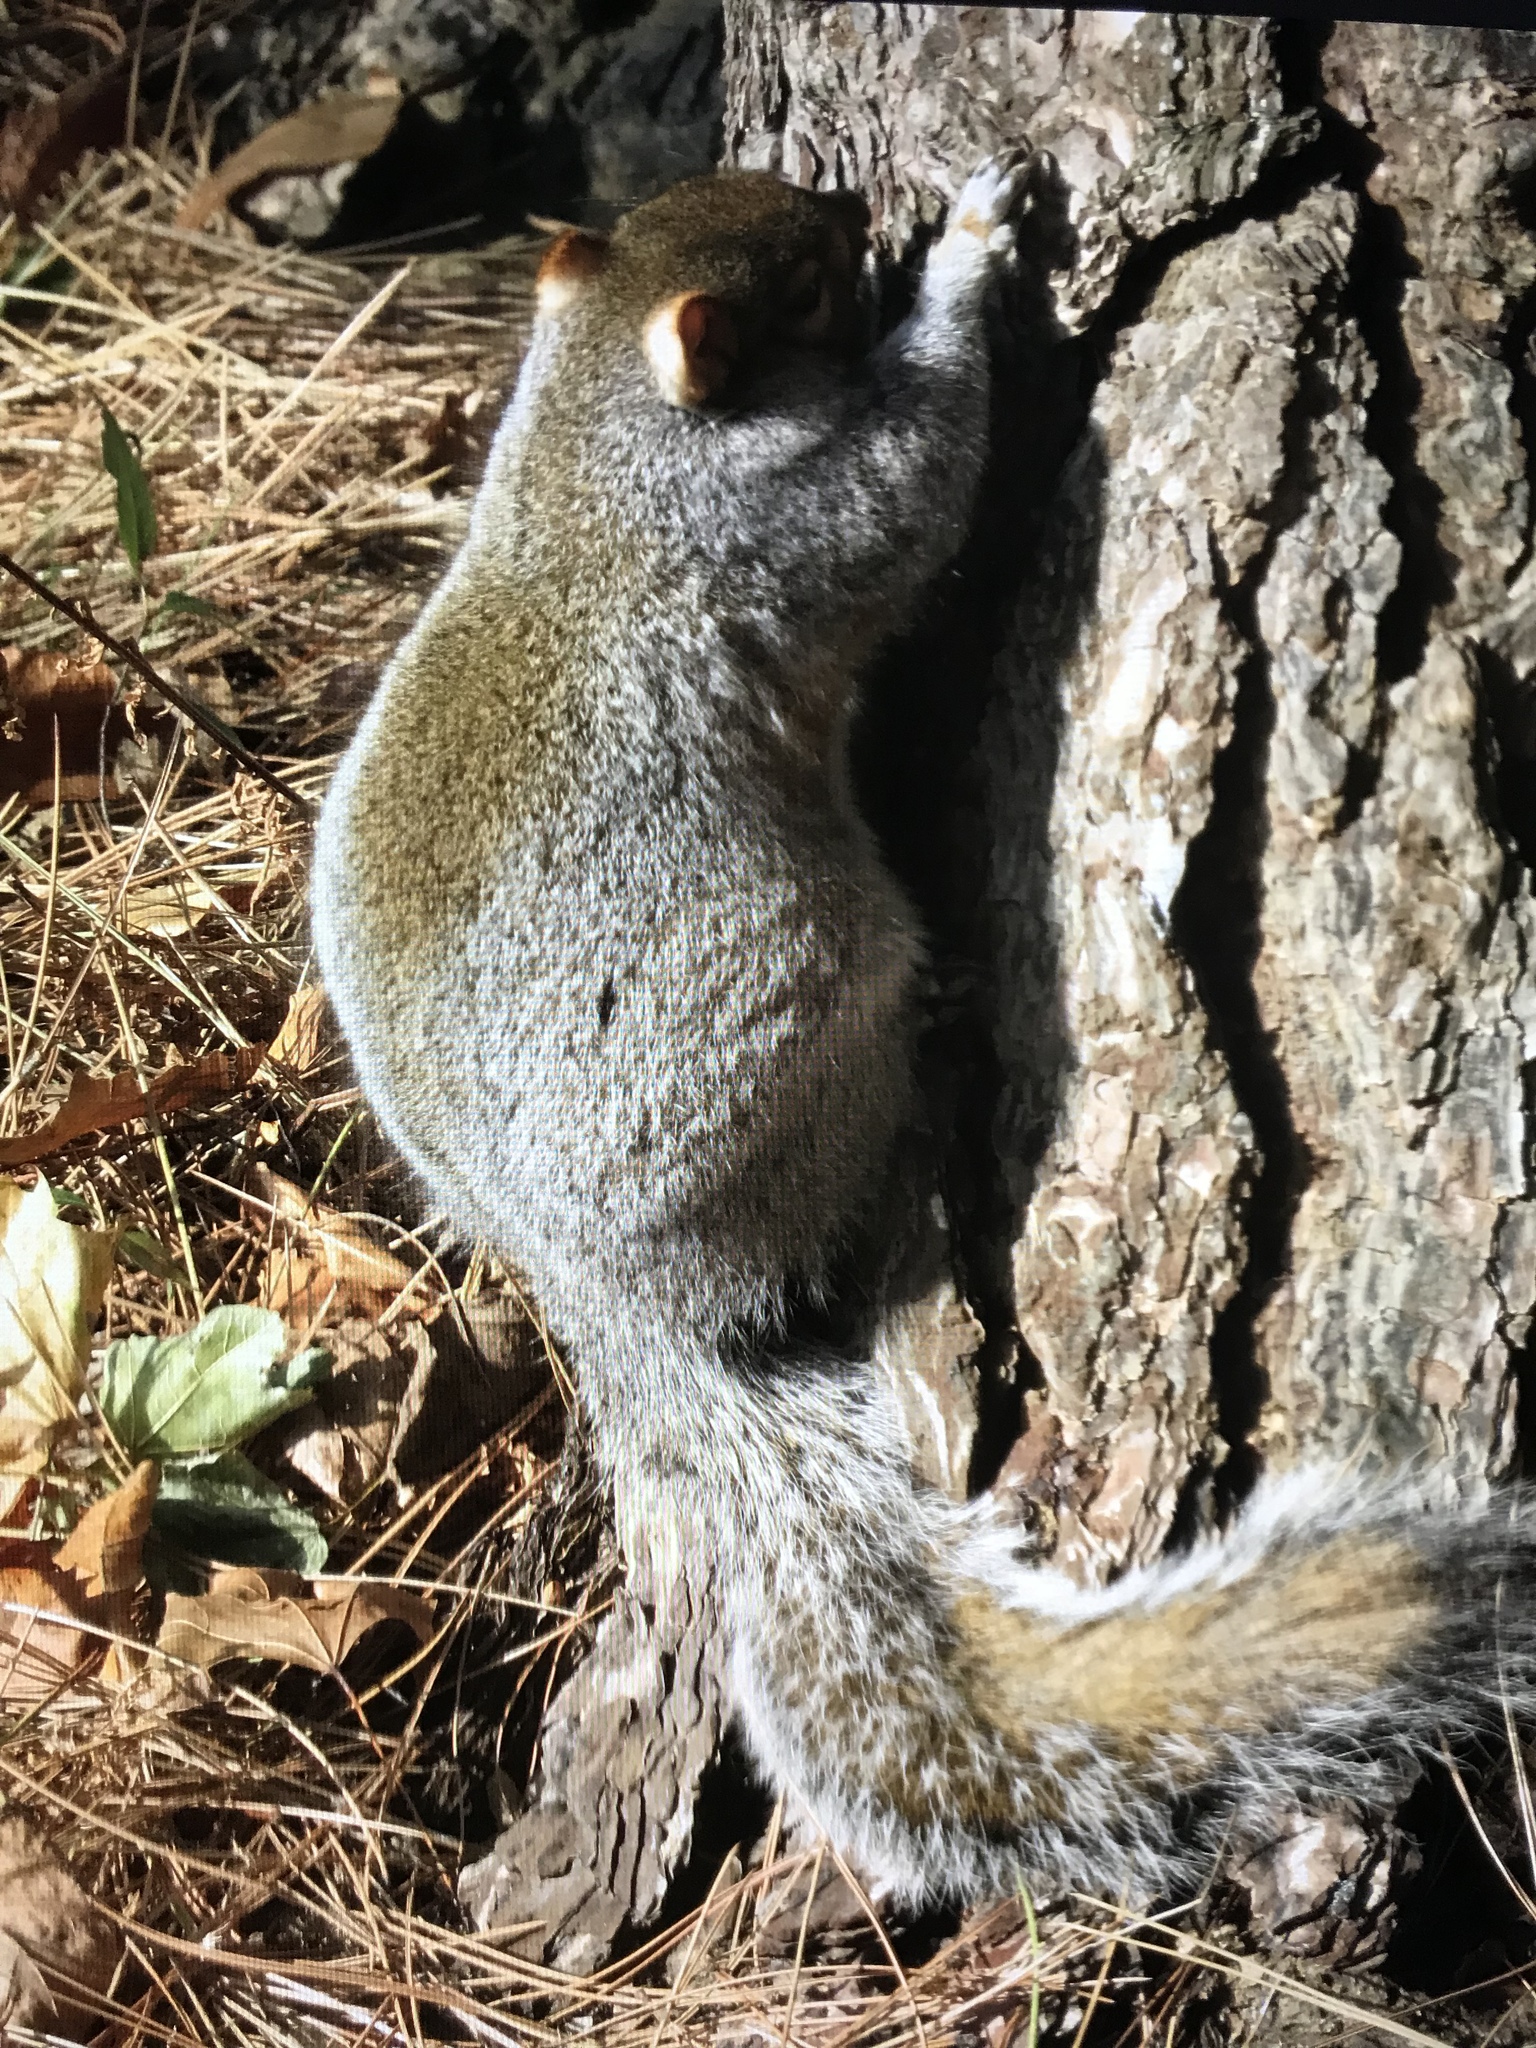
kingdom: Animalia
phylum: Chordata
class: Mammalia
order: Rodentia
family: Sciuridae
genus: Sciurus
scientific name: Sciurus carolinensis
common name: Eastern gray squirrel
